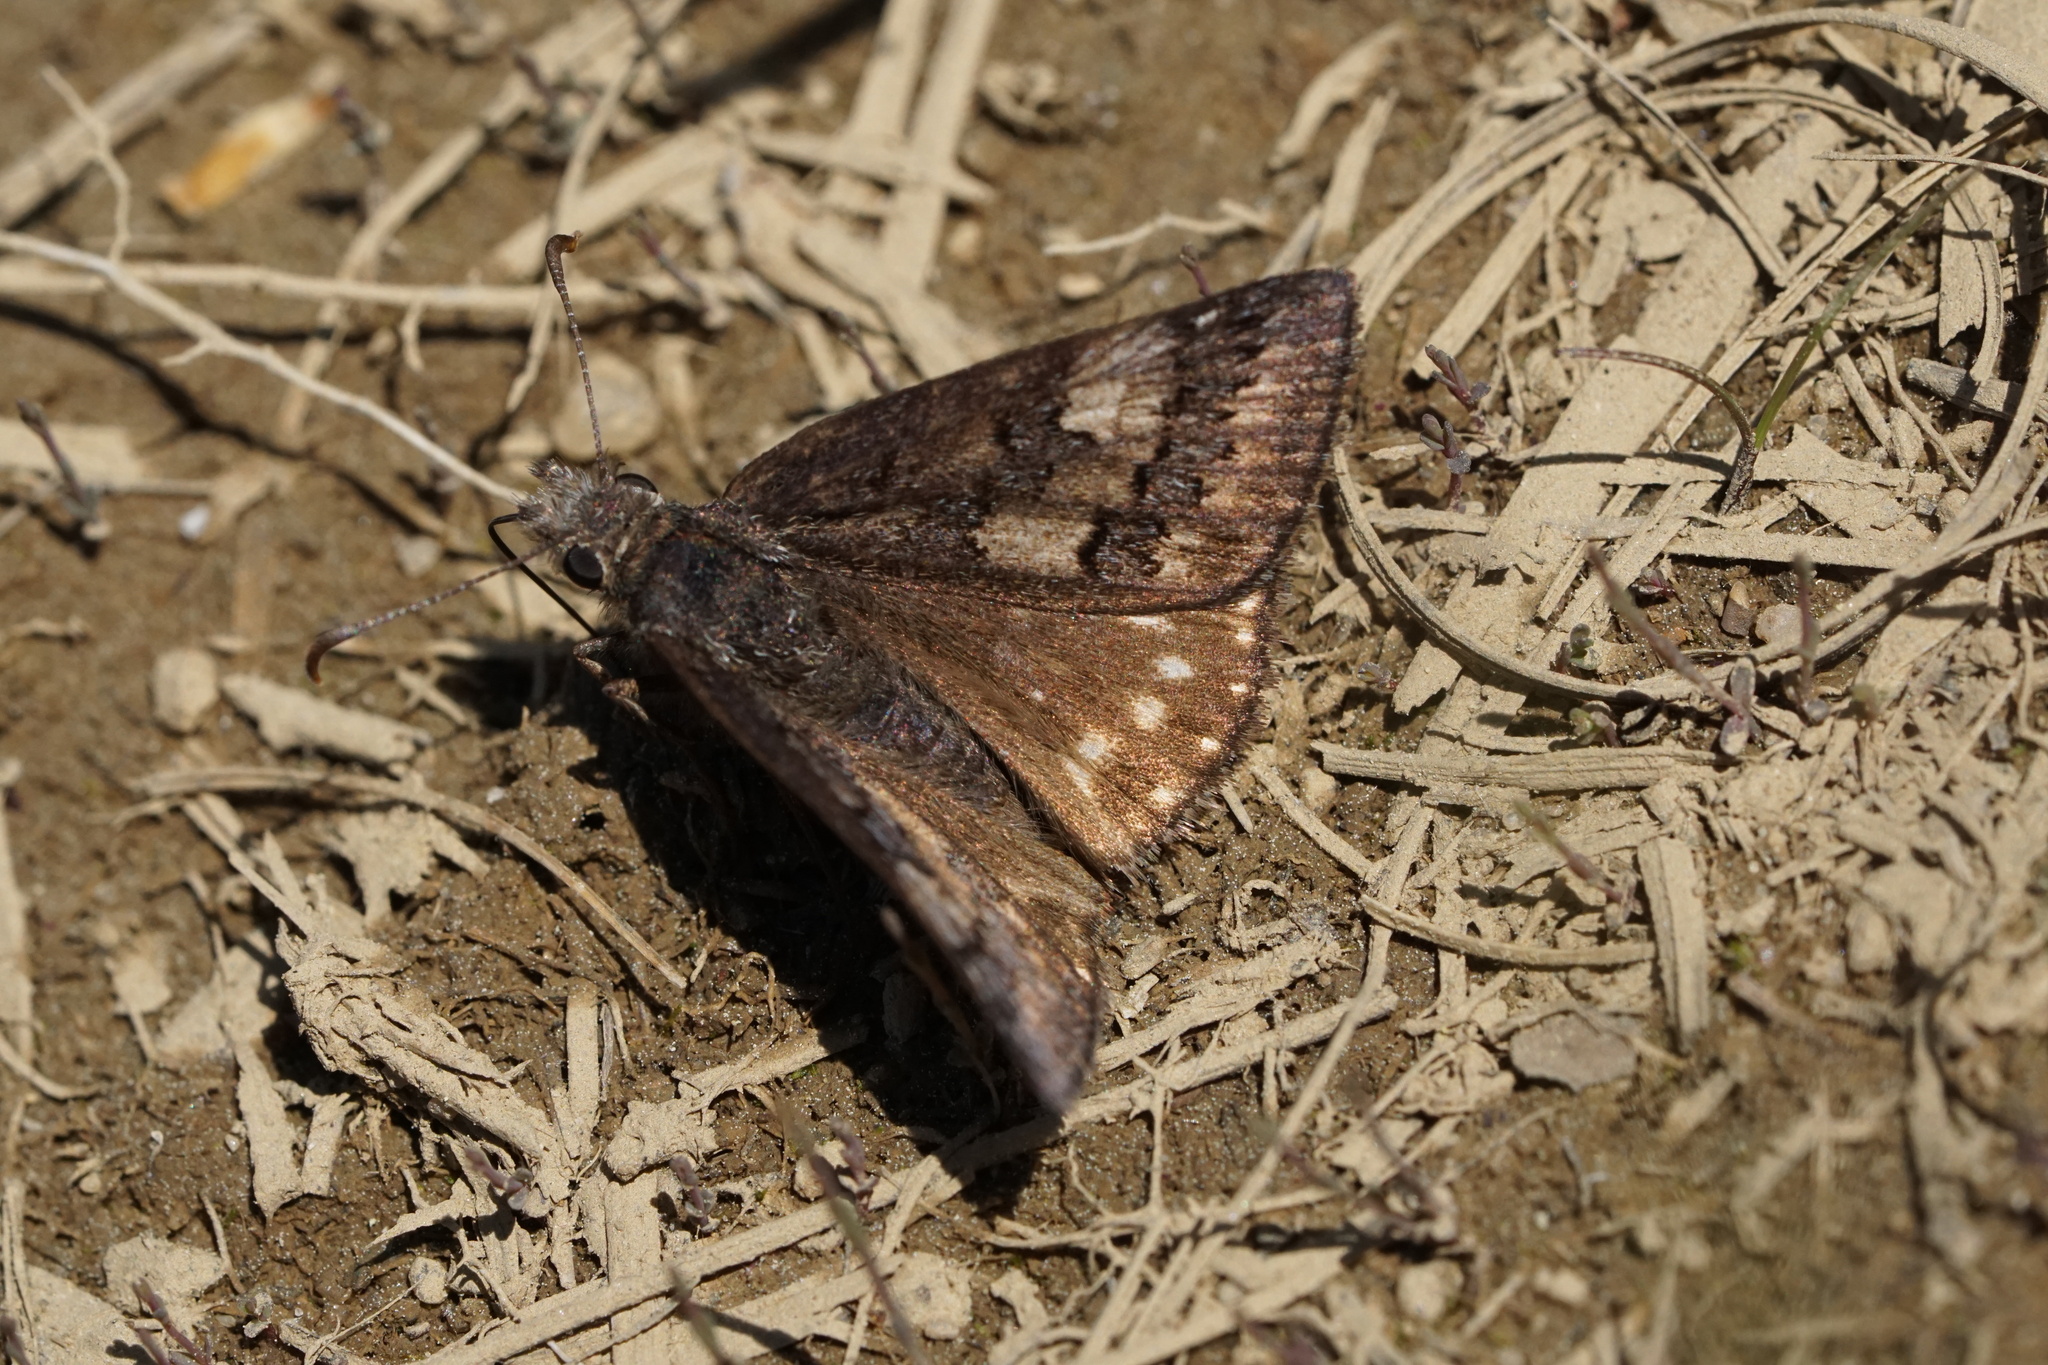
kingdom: Animalia
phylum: Arthropoda
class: Insecta
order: Lepidoptera
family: Hesperiidae
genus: Erynnis
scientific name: Erynnis brizo
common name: Sleepy duskywing
